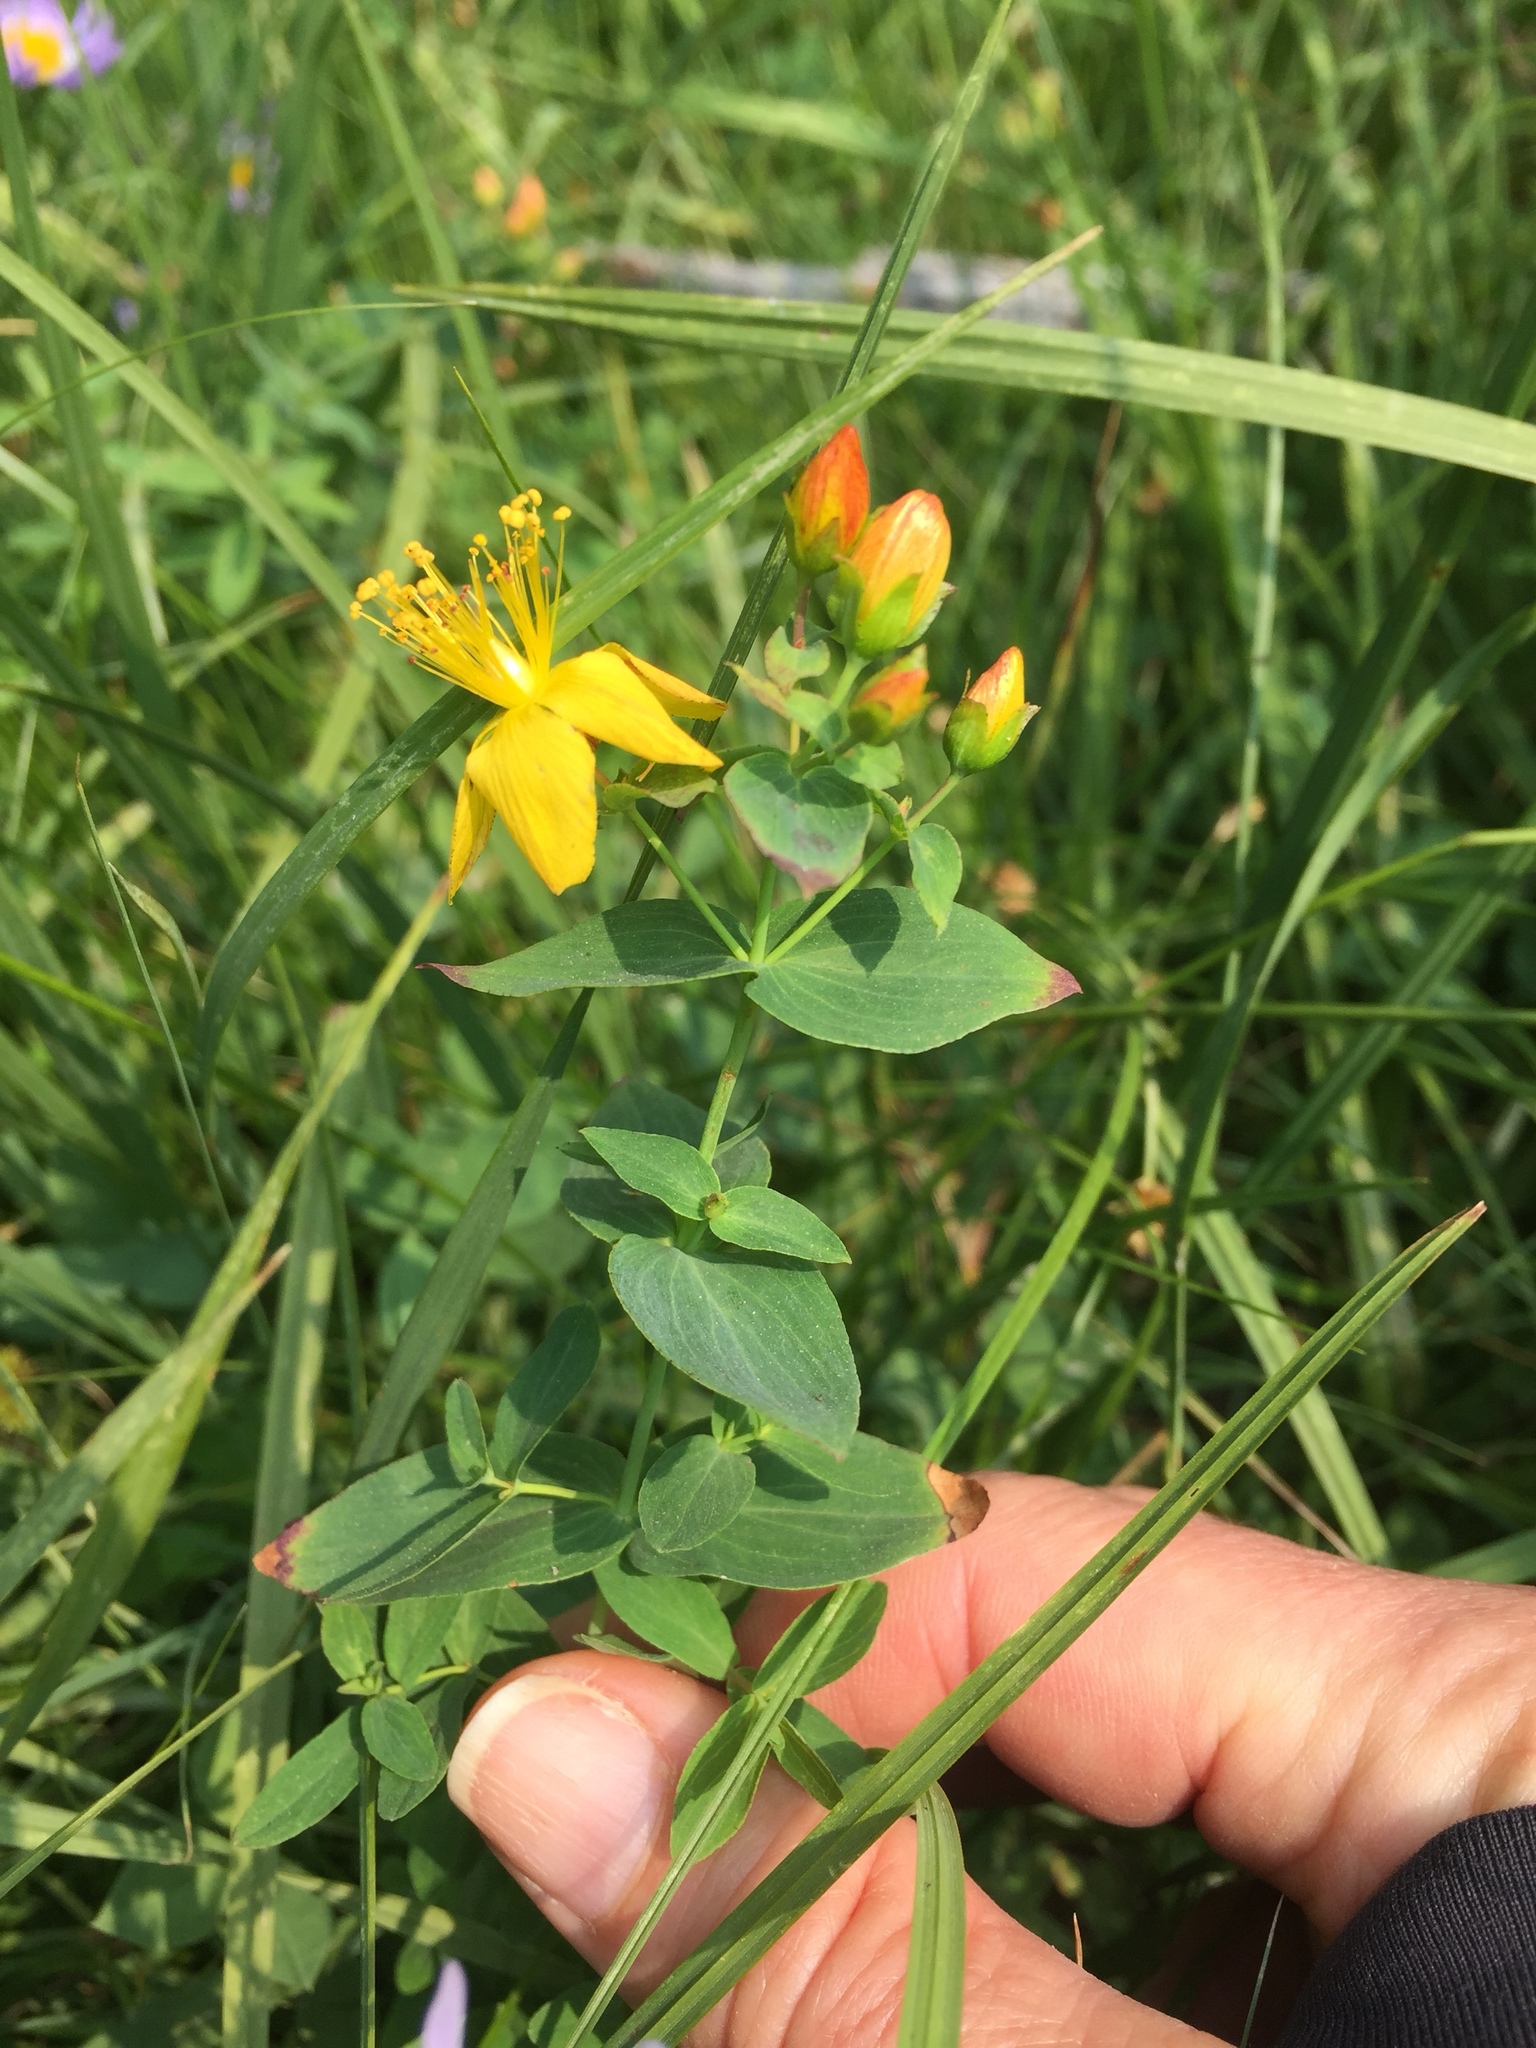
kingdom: Plantae
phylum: Tracheophyta
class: Magnoliopsida
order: Malpighiales
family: Hypericaceae
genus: Hypericum
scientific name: Hypericum perforatum
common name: Common st. johnswort
